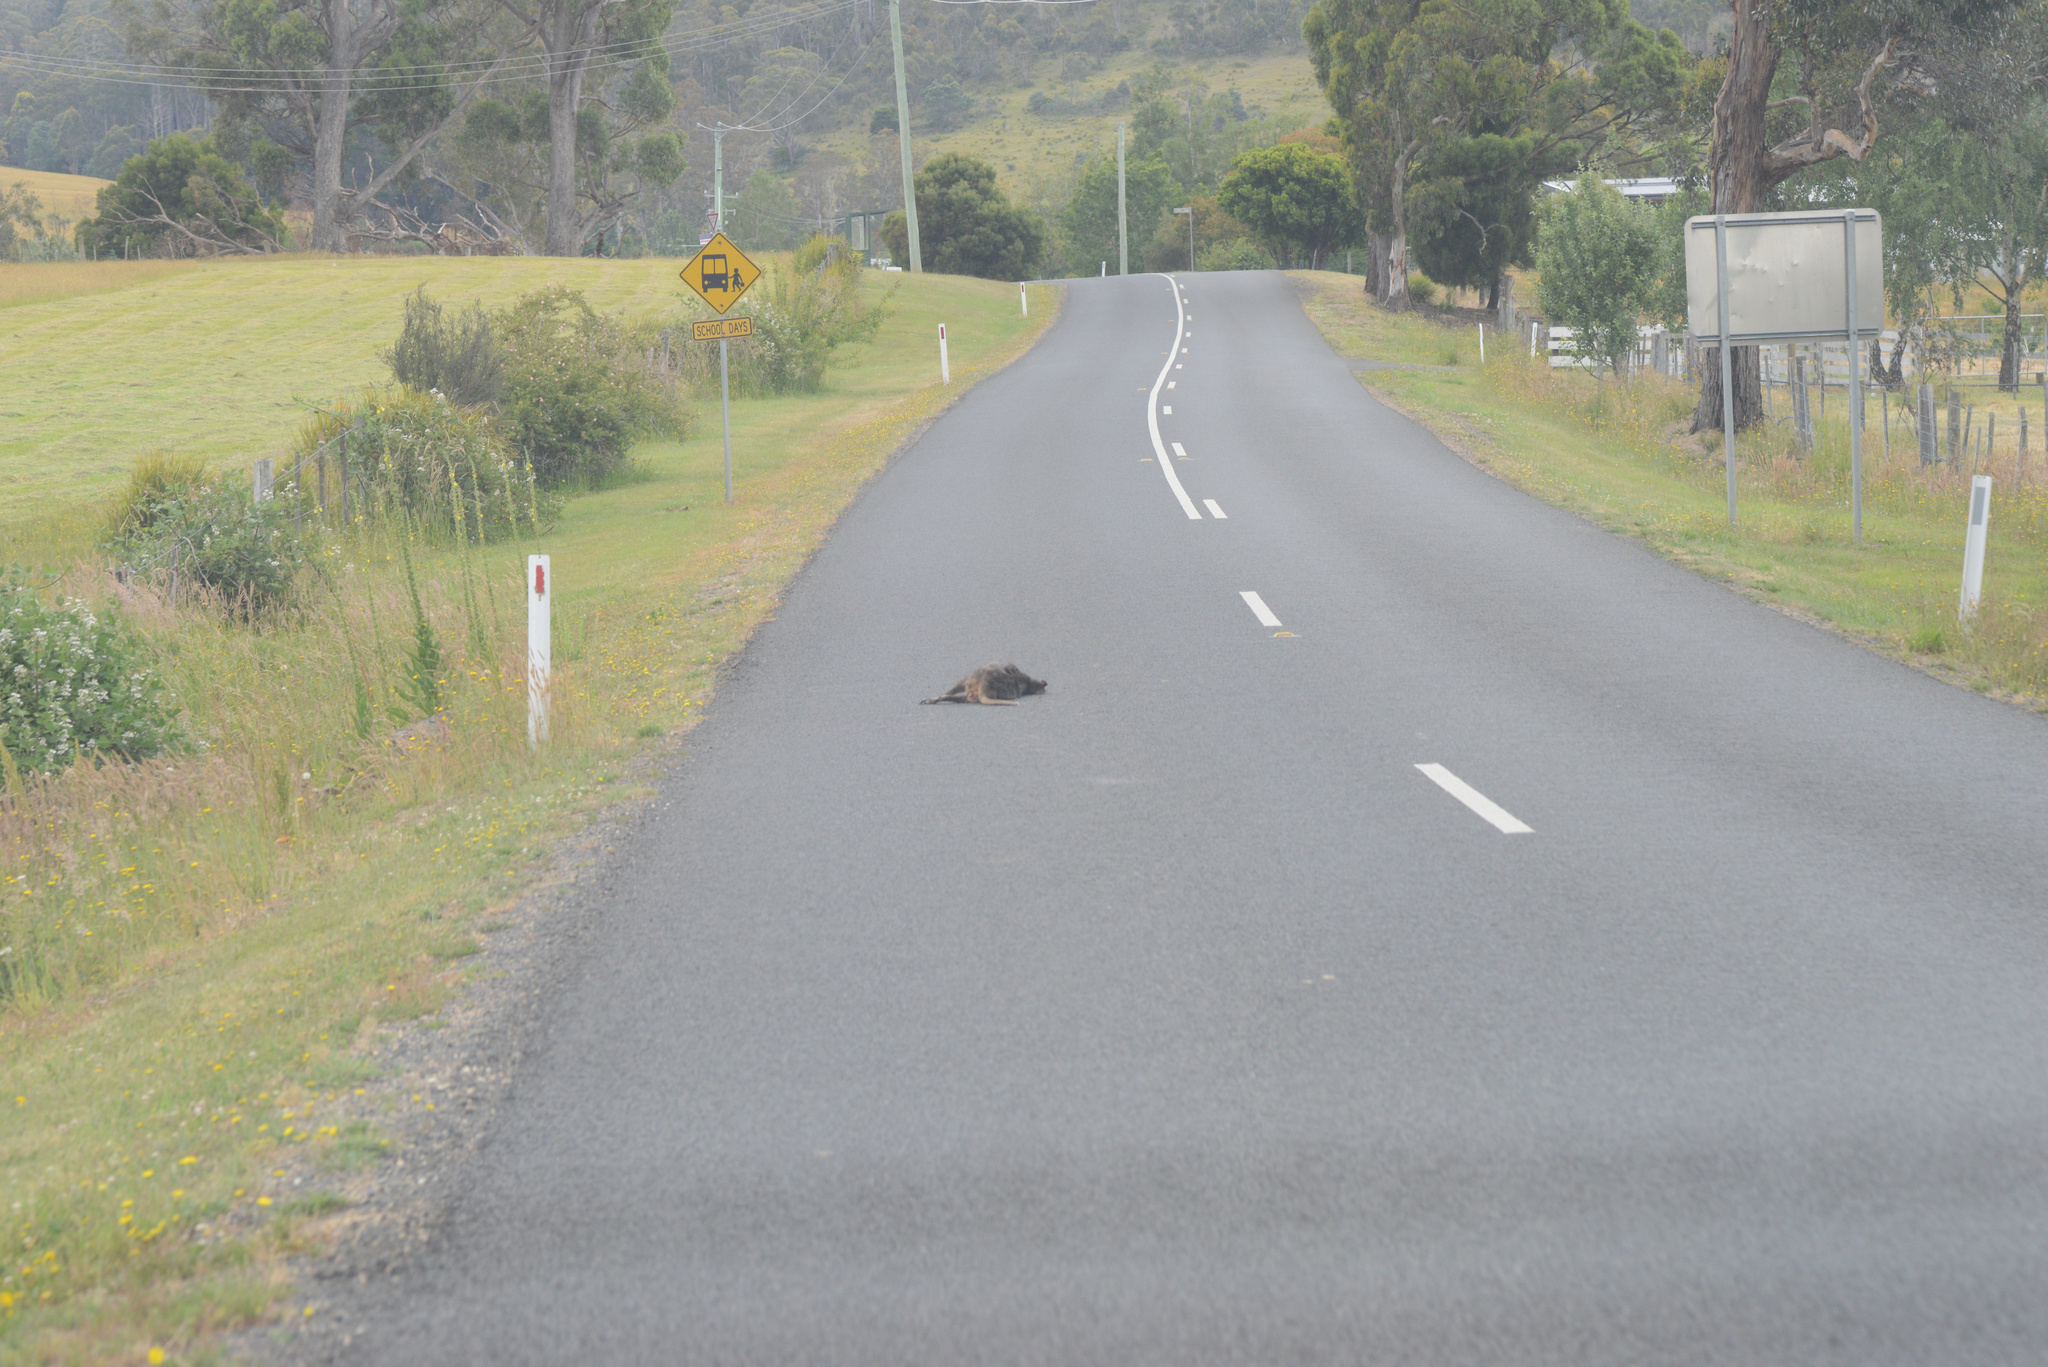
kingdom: Animalia
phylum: Chordata
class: Mammalia
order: Diprotodontia
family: Macropodidae
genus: Thylogale
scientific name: Thylogale billardierii
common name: Tasmanian pademelon
